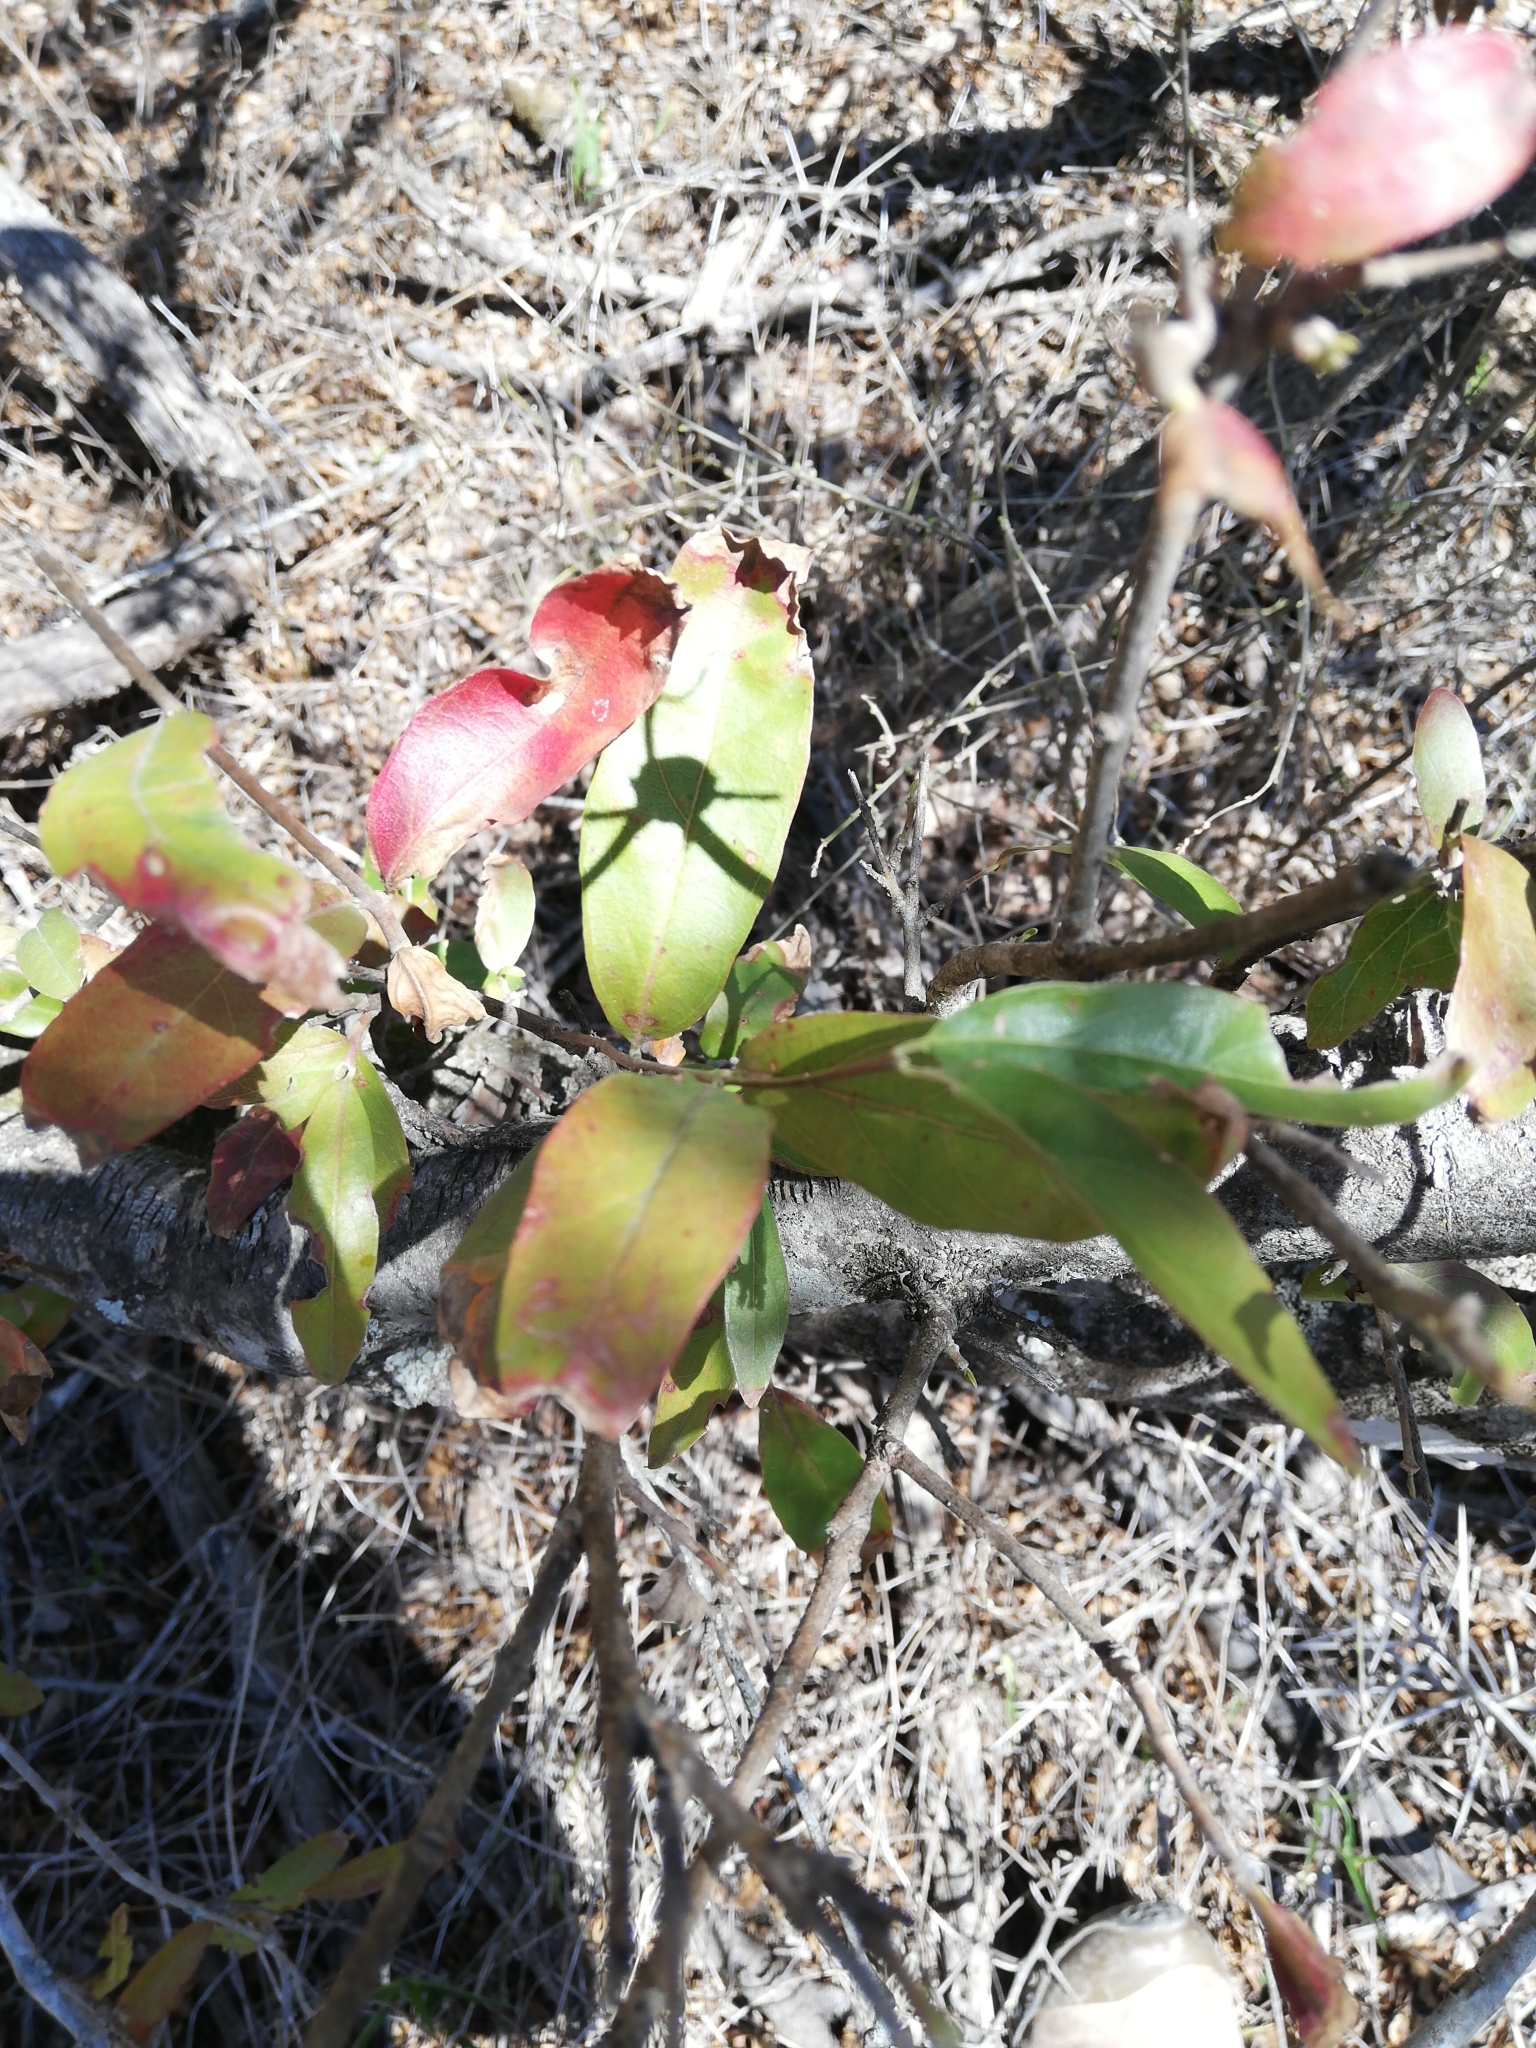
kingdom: Plantae
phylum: Tracheophyta
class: Magnoliopsida
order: Myrtales
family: Combretaceae
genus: Combretum
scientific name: Combretum caffrum
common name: Cape bushwillow
